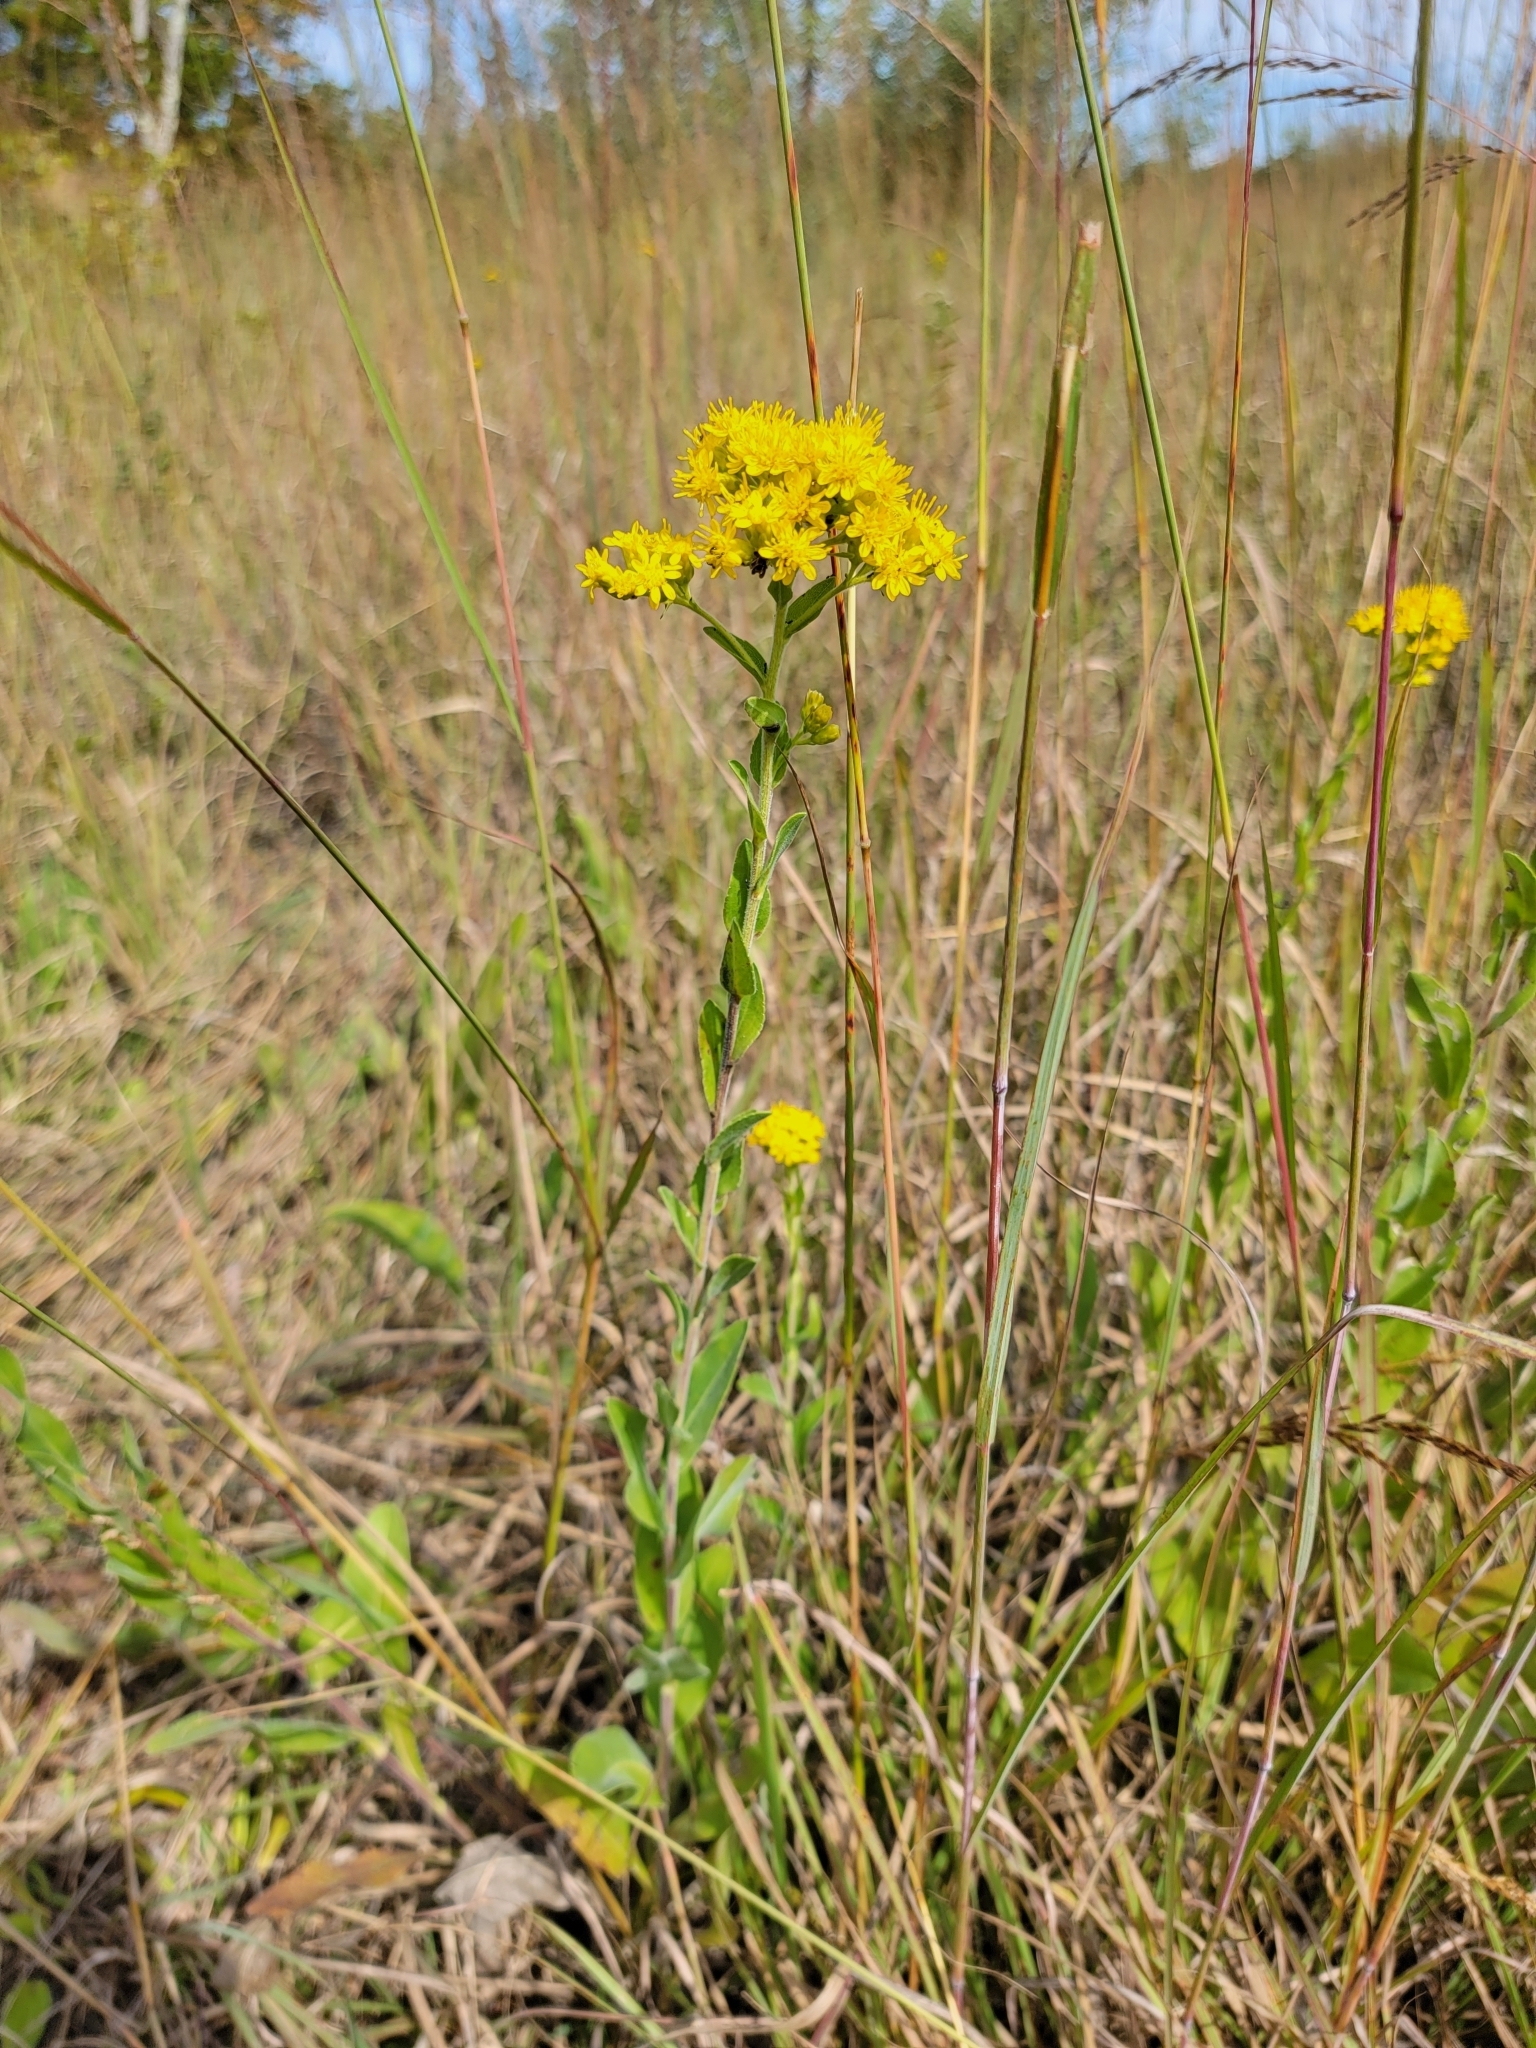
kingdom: Plantae
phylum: Tracheophyta
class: Magnoliopsida
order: Asterales
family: Asteraceae
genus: Solidago
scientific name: Solidago rigida
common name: Rigid goldenrod
